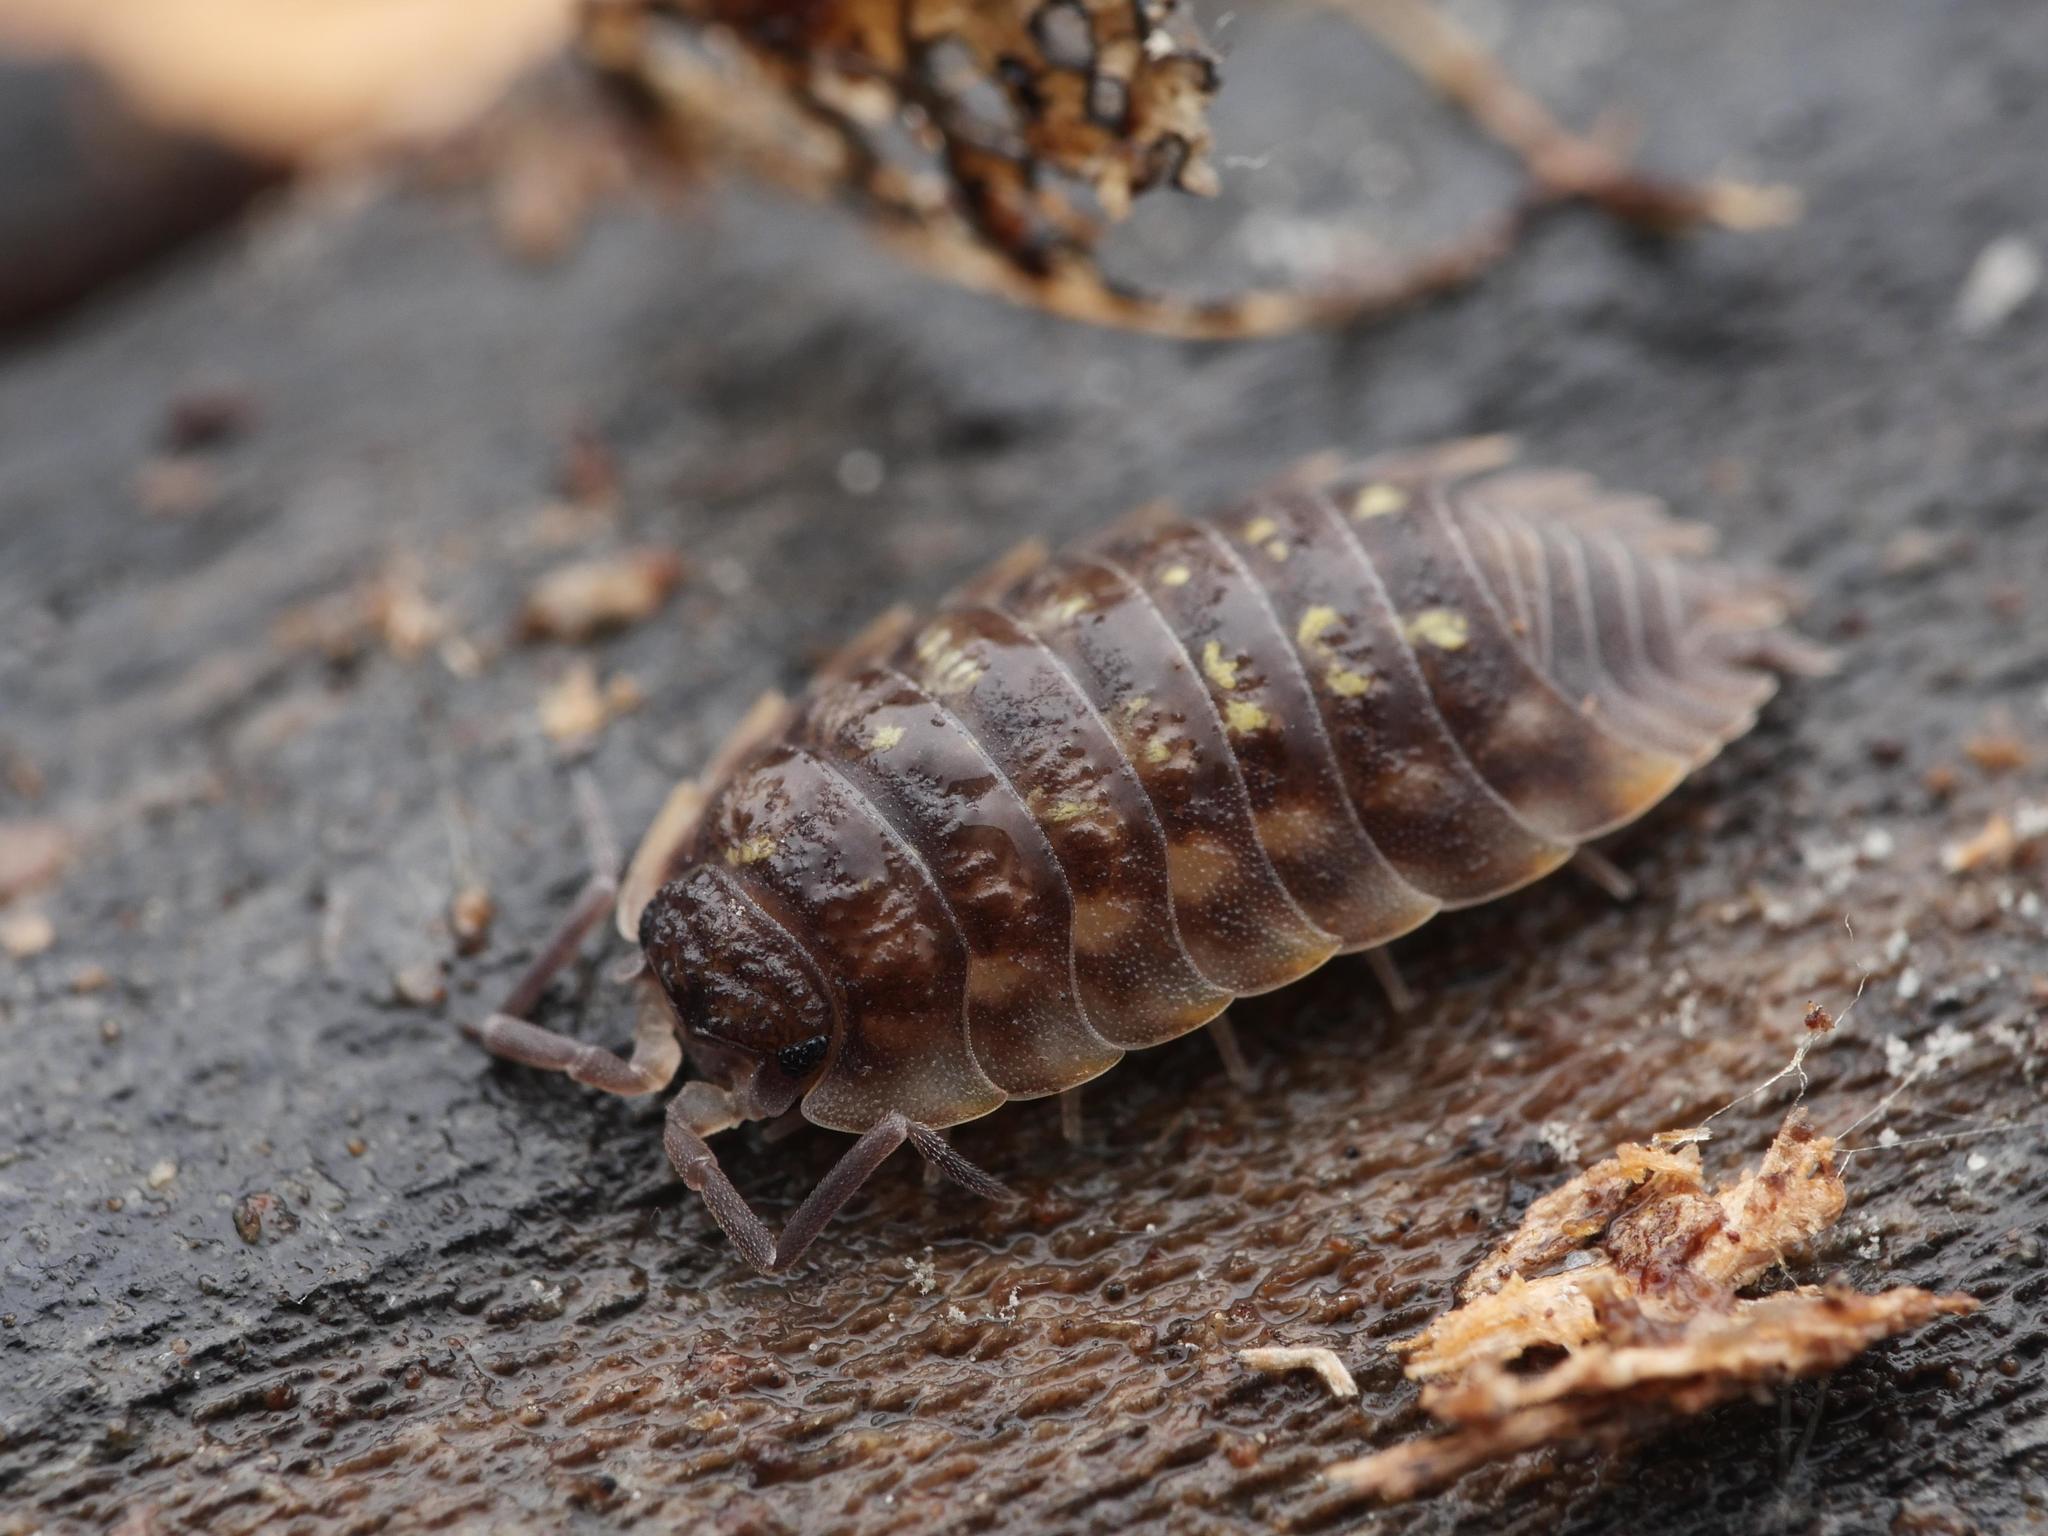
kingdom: Animalia
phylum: Arthropoda
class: Malacostraca
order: Isopoda
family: Oniscidae
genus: Oniscus
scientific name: Oniscus asellus
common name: Common shiny woodlouse
